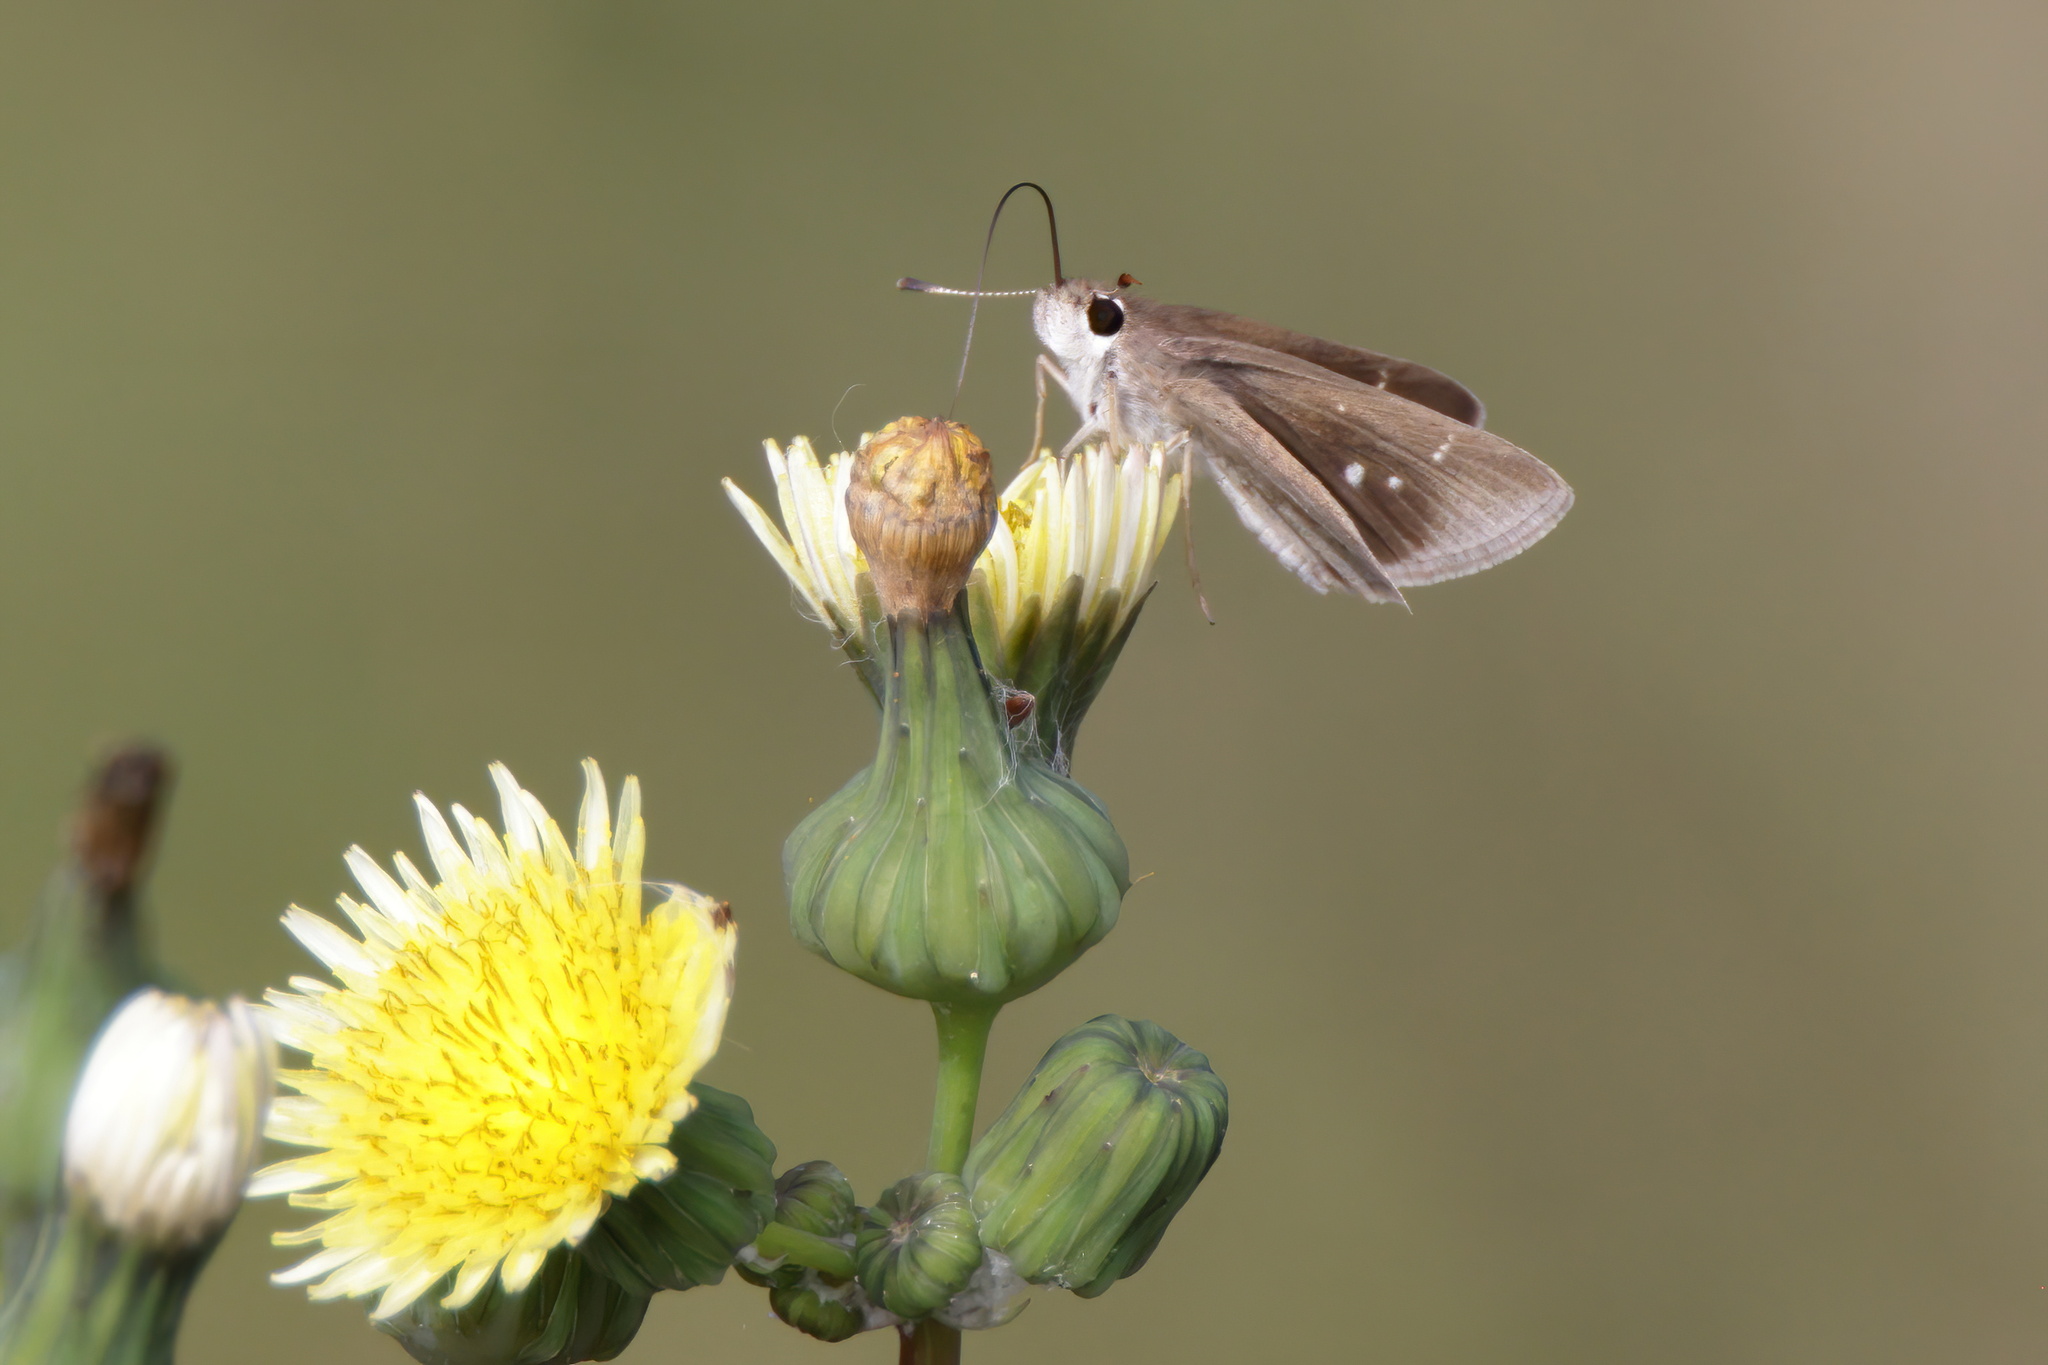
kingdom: Animalia
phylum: Arthropoda
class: Insecta
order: Lepidoptera
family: Hesperiidae
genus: Lerodea
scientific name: Lerodea eufala
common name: Eufala skipper
